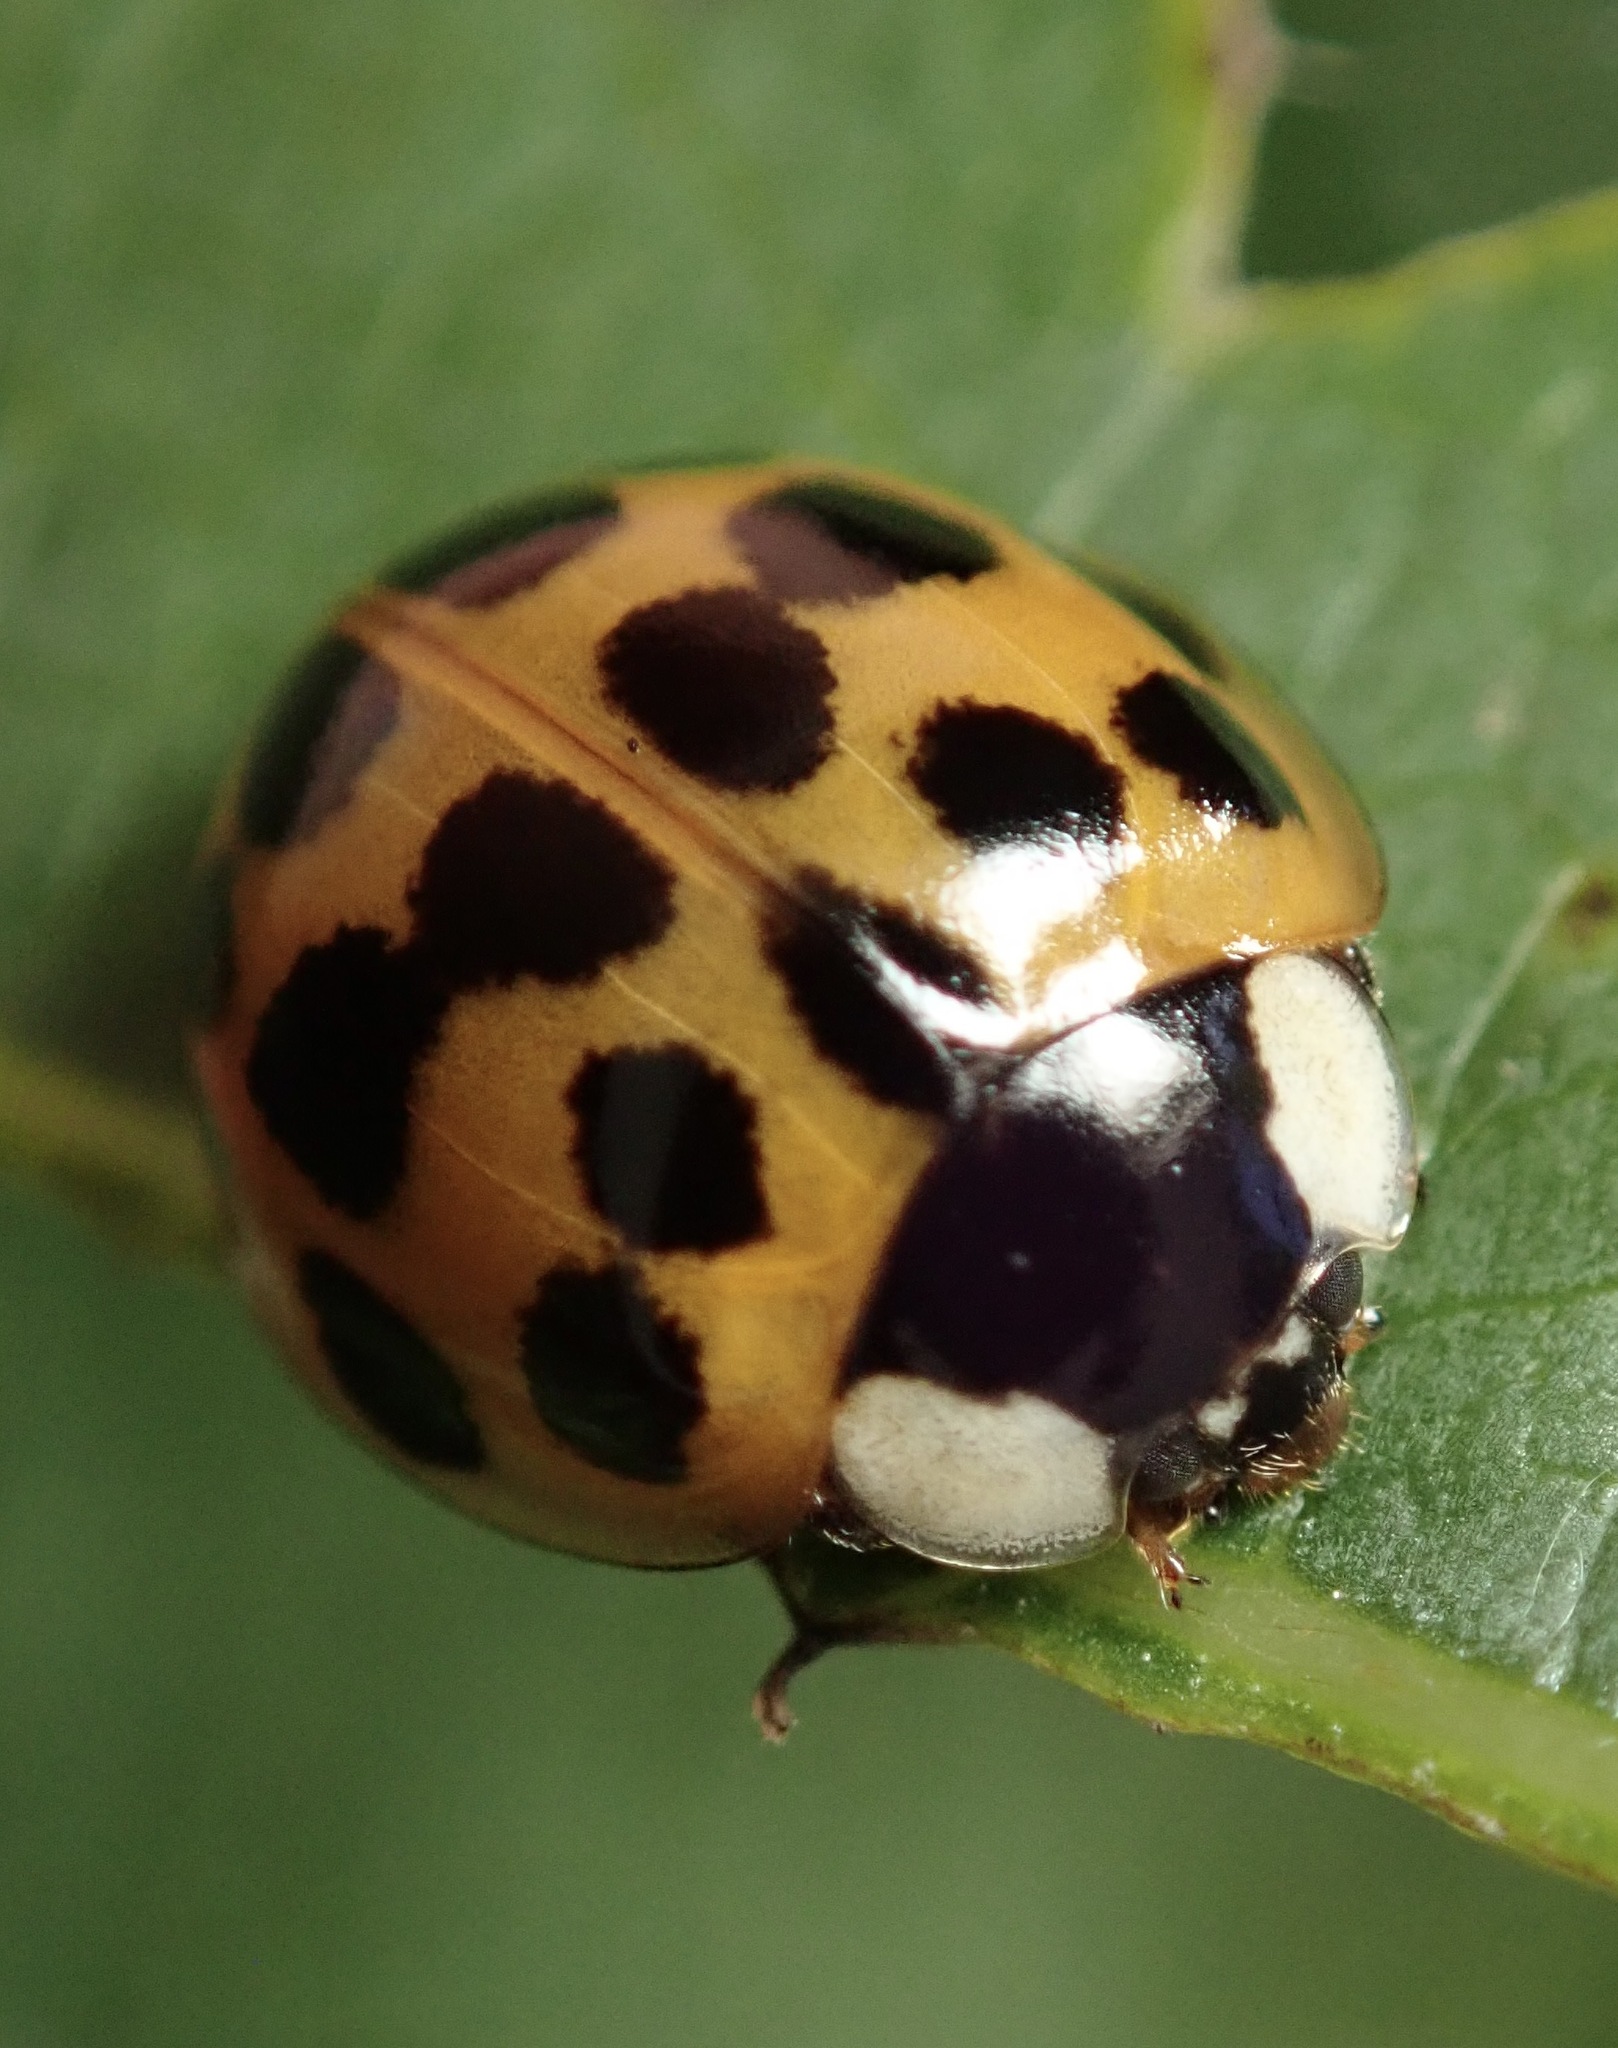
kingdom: Animalia
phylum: Arthropoda
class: Insecta
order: Coleoptera
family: Coccinellidae
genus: Harmonia
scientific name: Harmonia axyridis
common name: Harlequin ladybird
